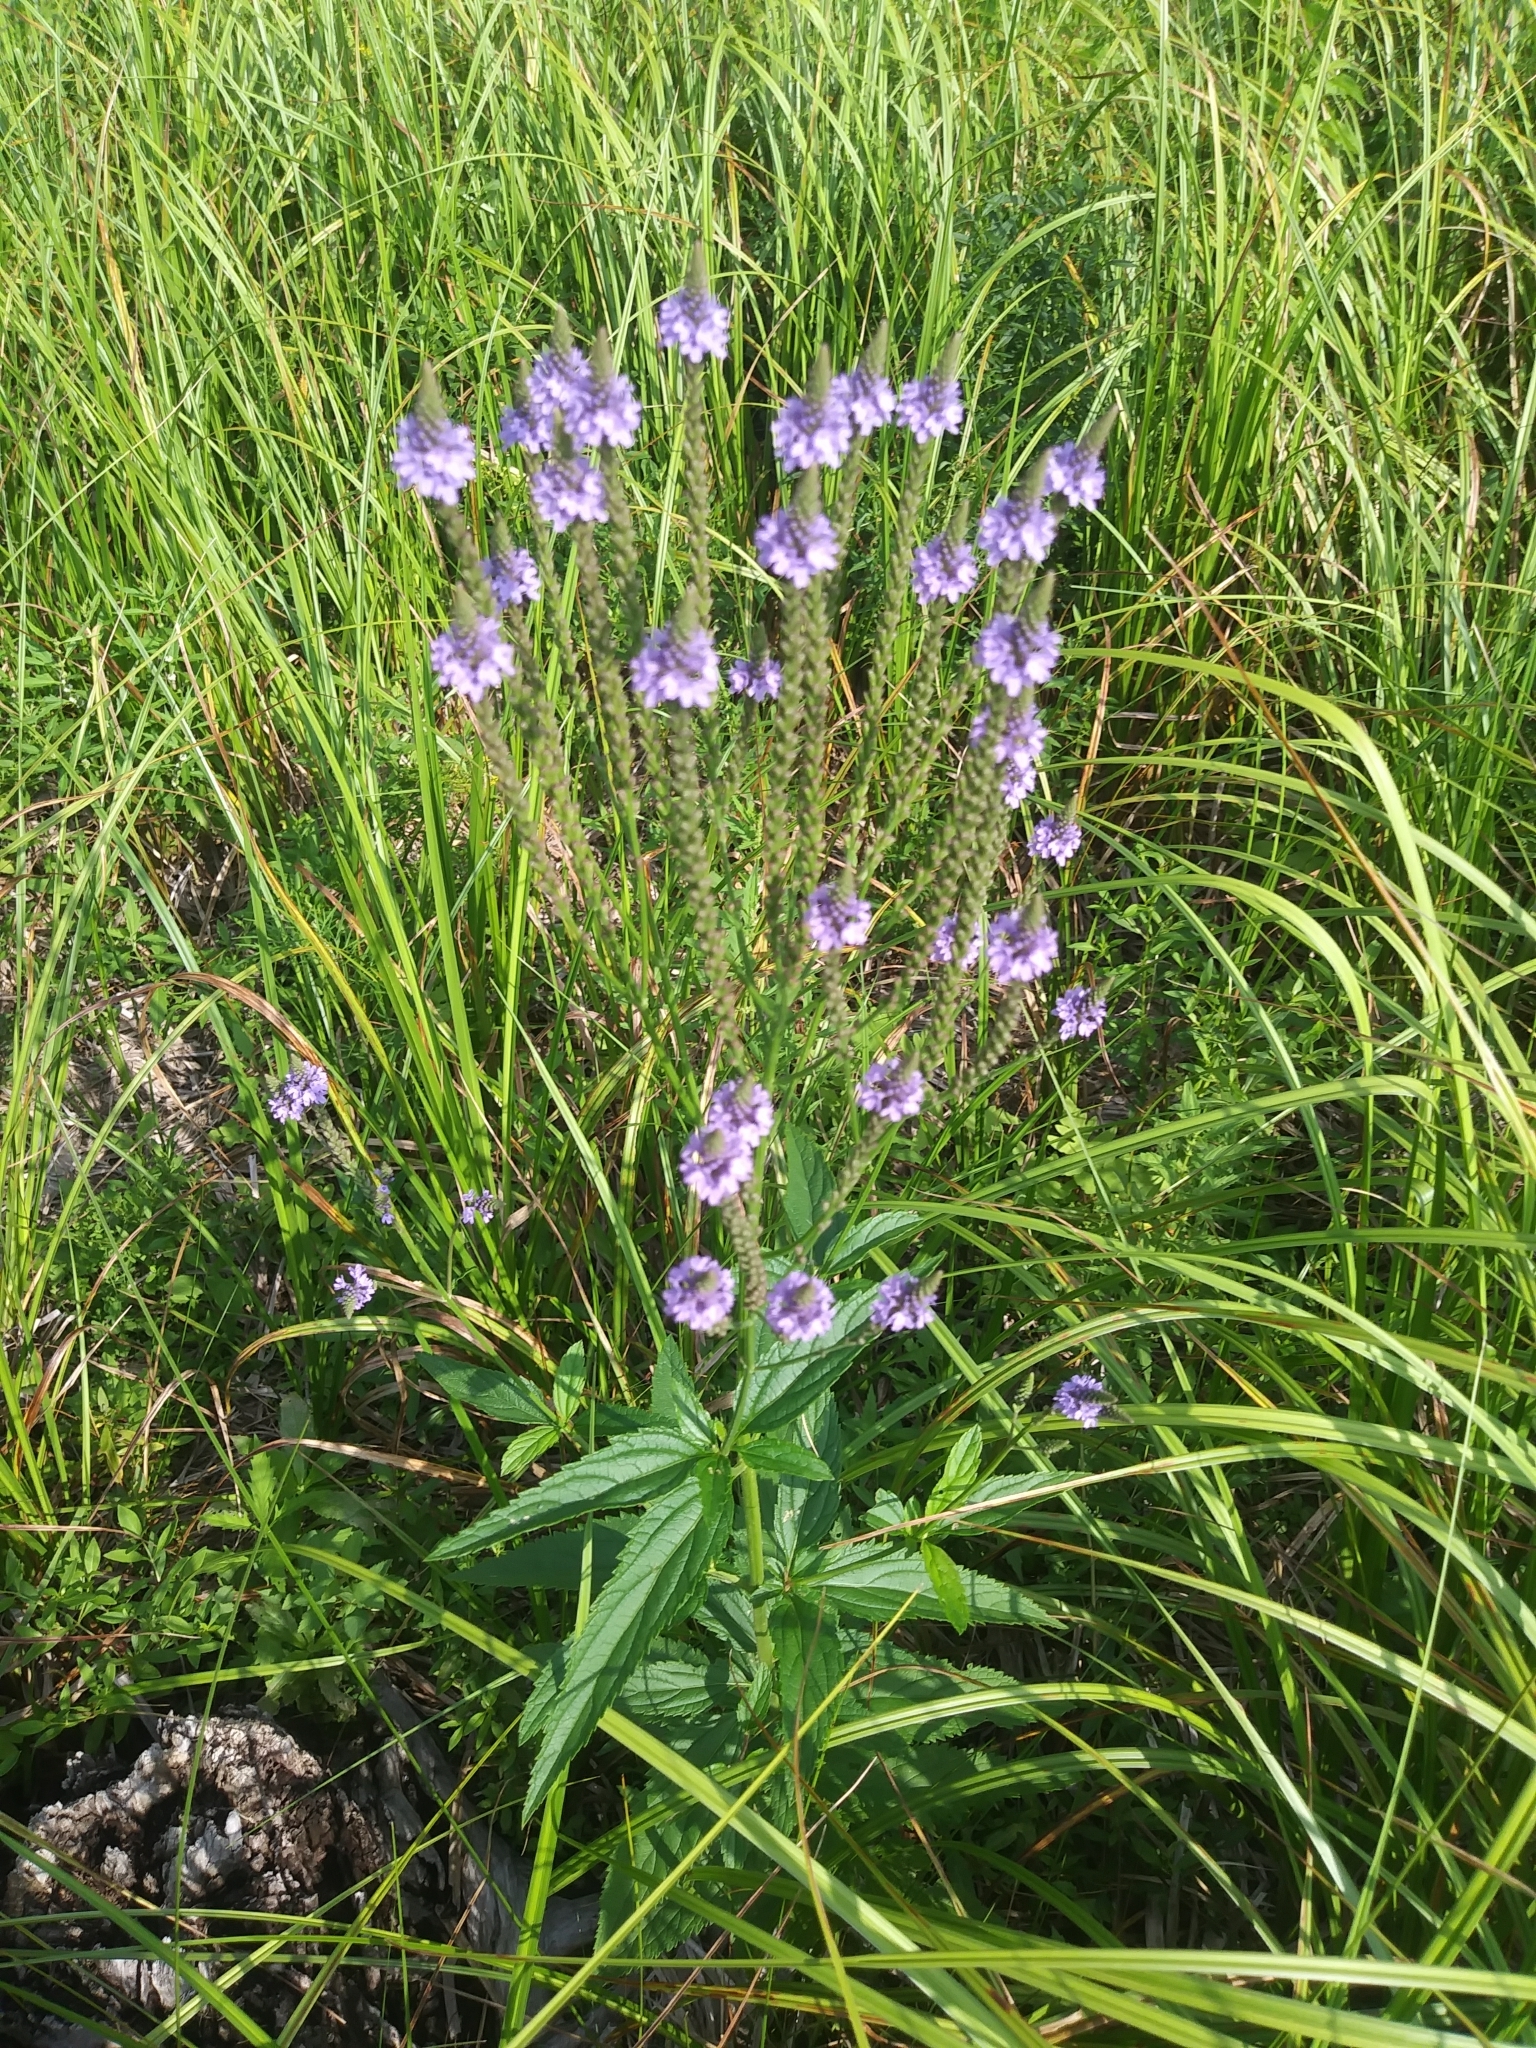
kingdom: Plantae
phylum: Tracheophyta
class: Magnoliopsida
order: Lamiales
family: Verbenaceae
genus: Verbena
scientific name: Verbena hastata
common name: American blue vervain
